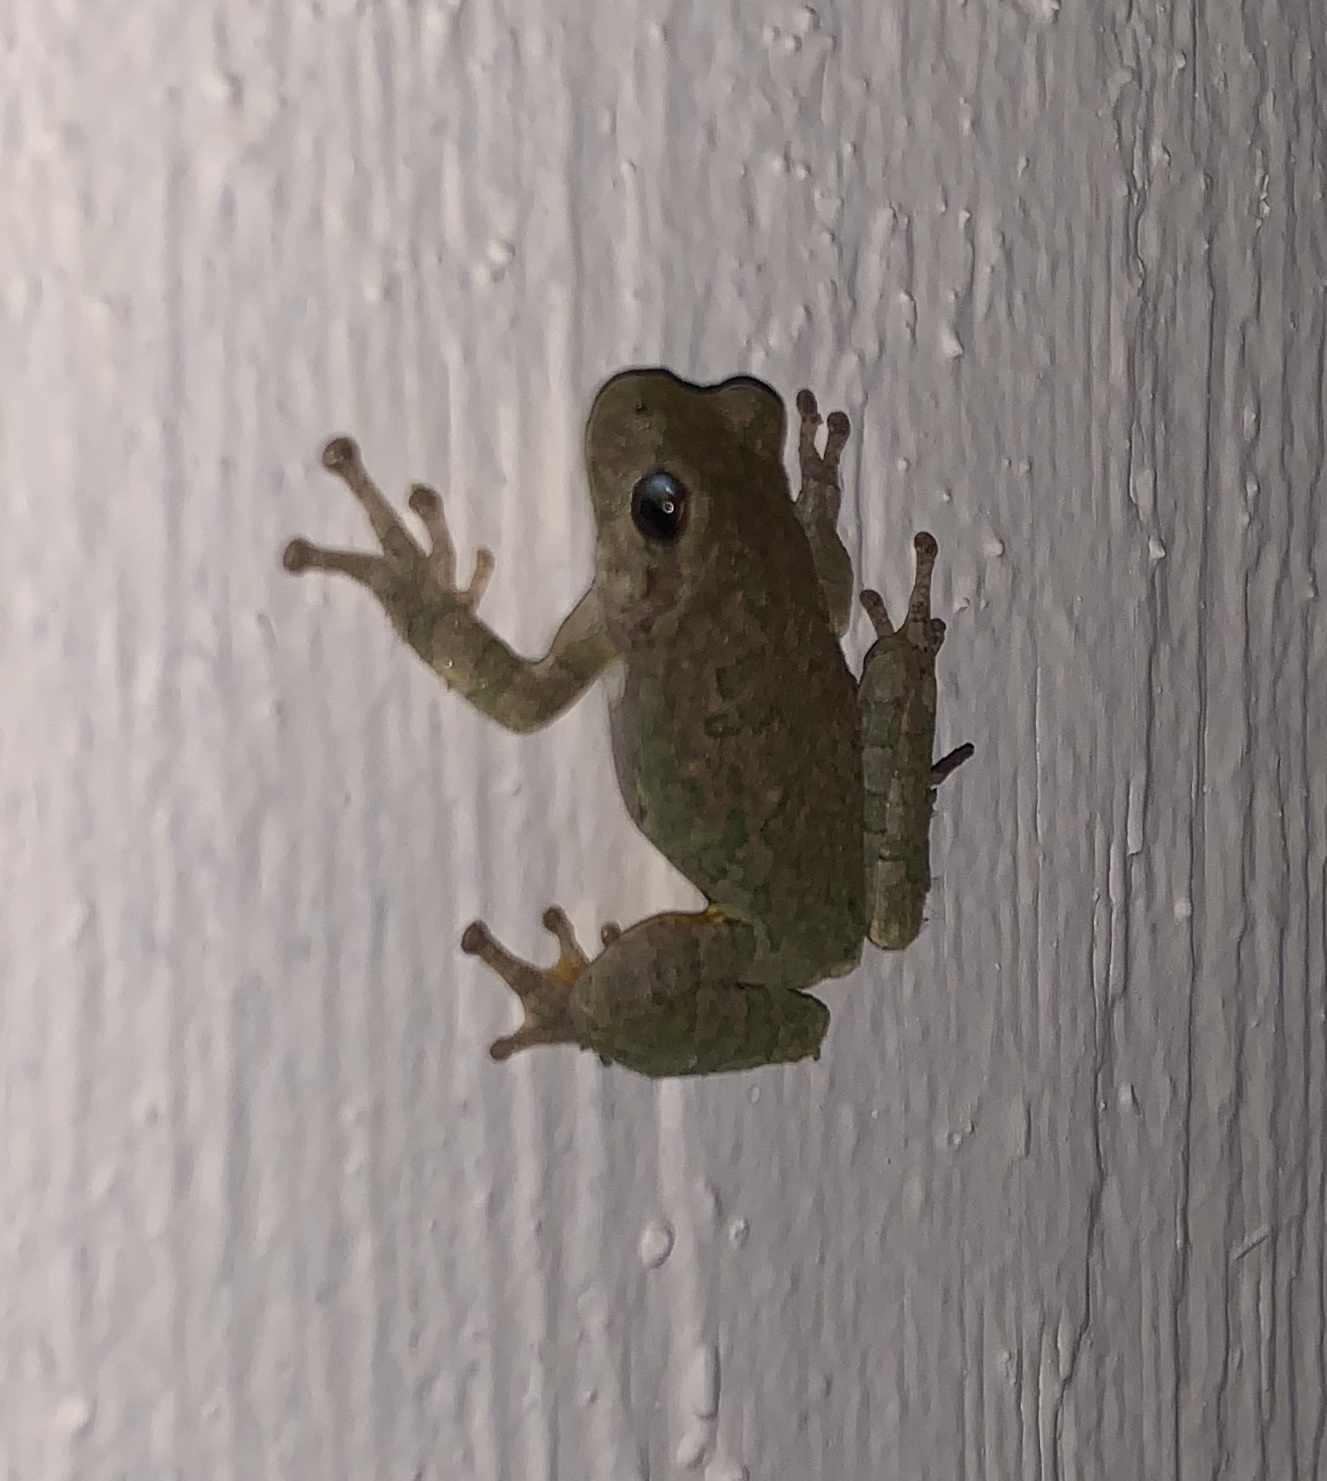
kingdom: Animalia
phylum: Chordata
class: Amphibia
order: Anura
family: Hylidae
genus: Hyla
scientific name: Hyla
